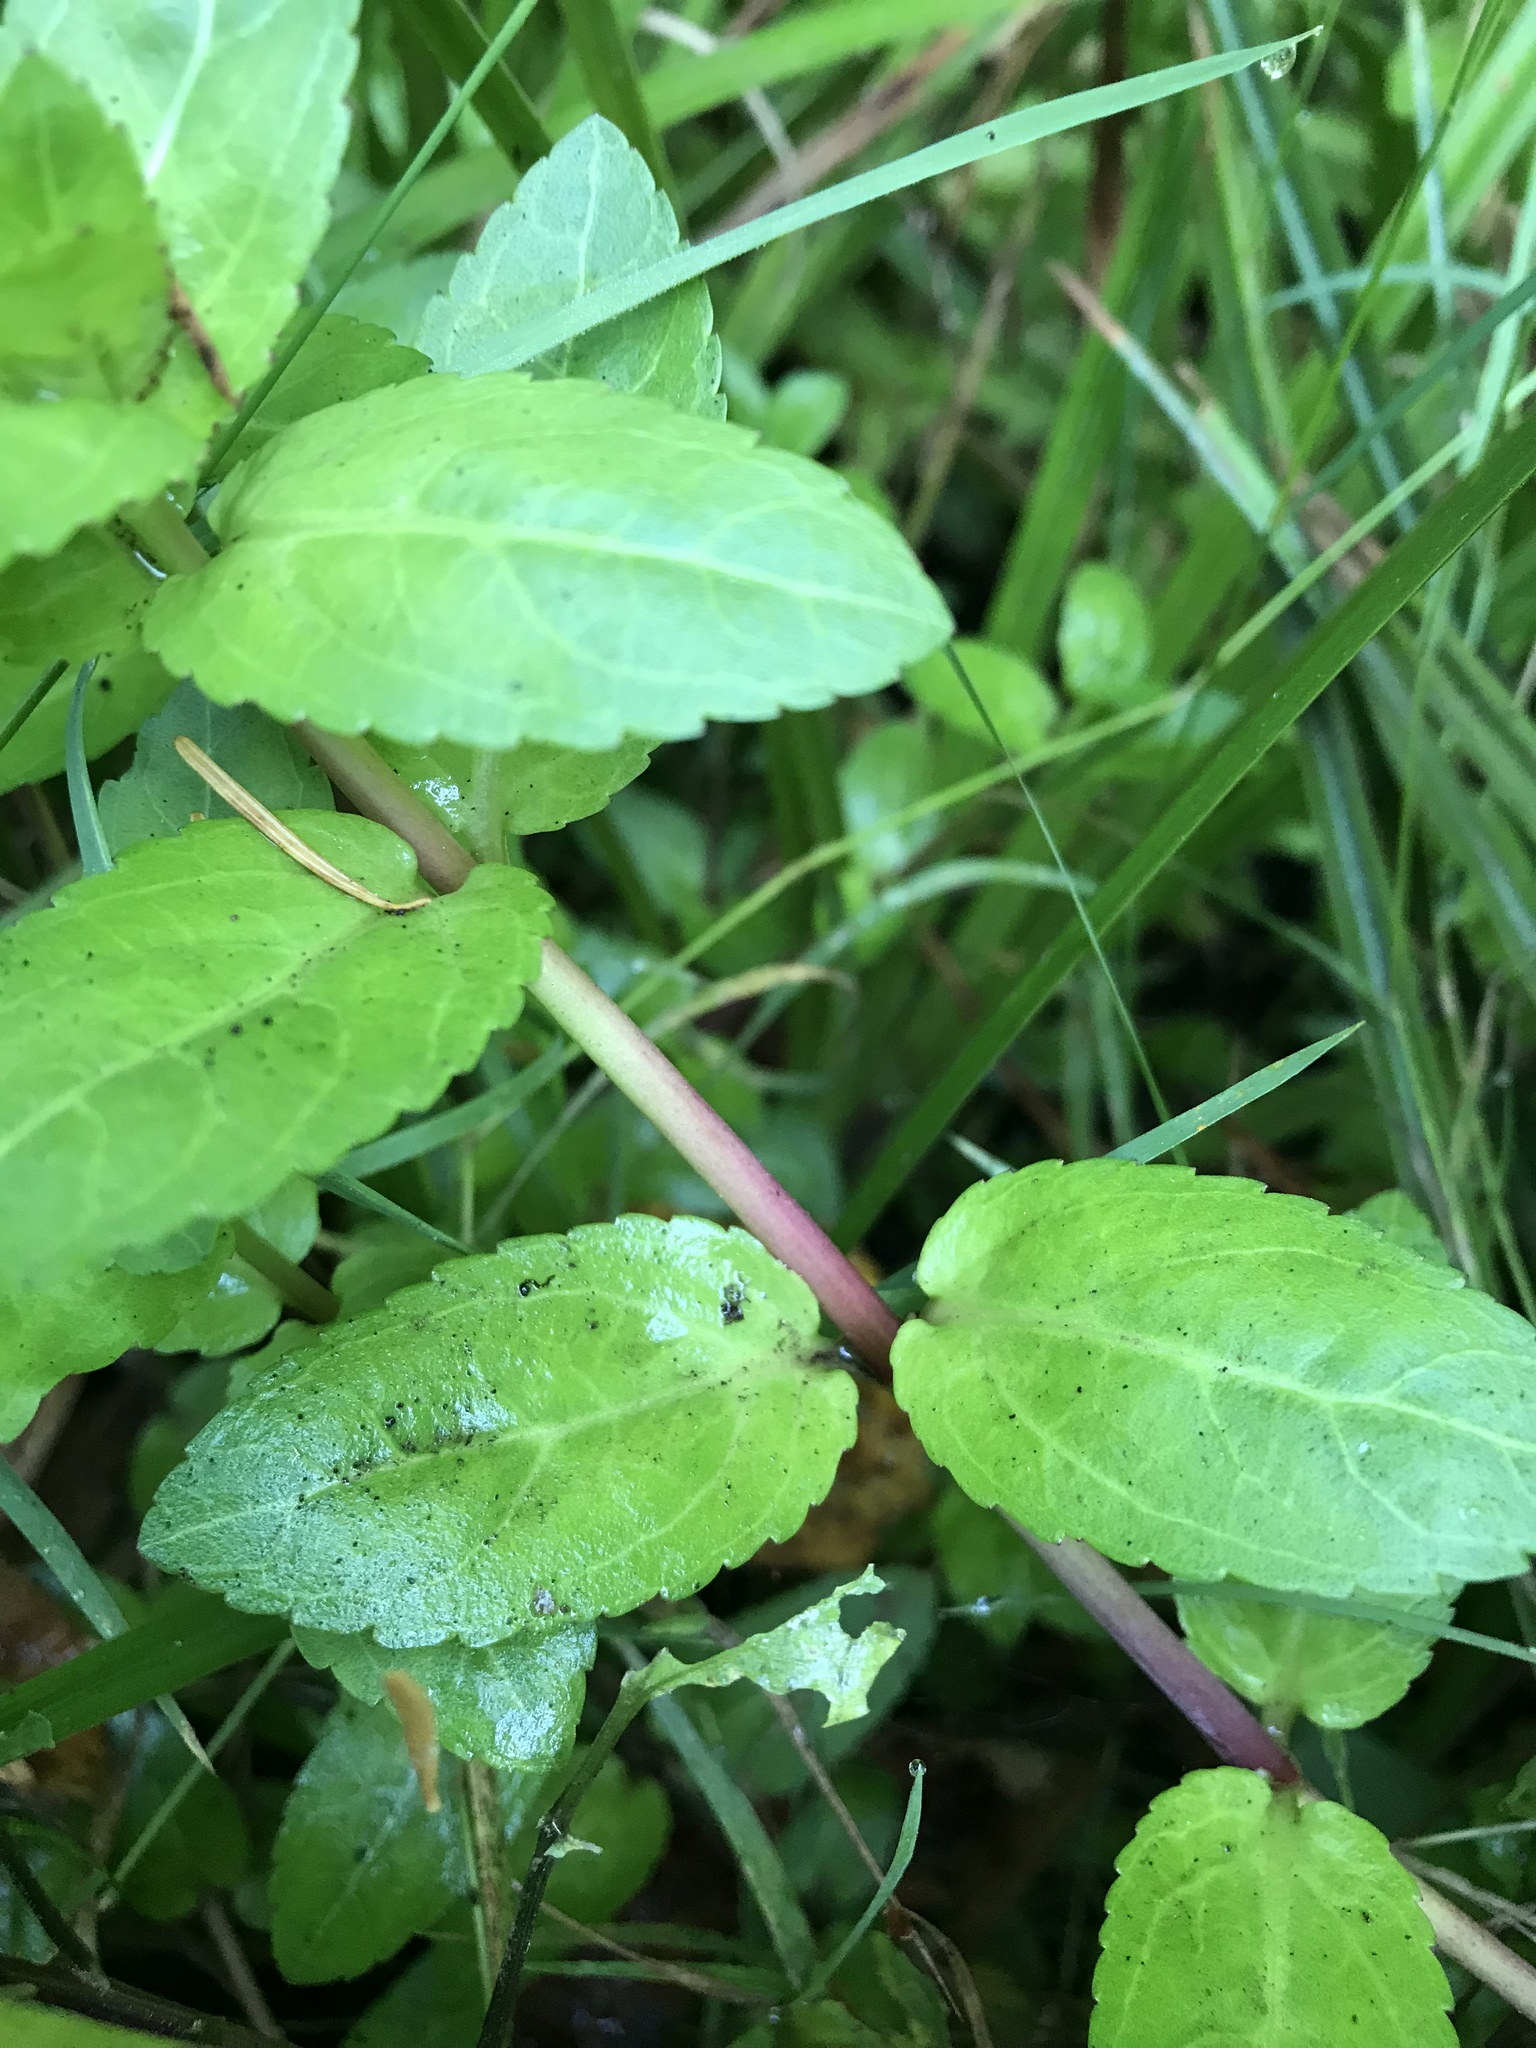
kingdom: Plantae
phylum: Tracheophyta
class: Magnoliopsida
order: Lamiales
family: Plantaginaceae
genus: Veronica
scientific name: Veronica americana
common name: American brooklime
